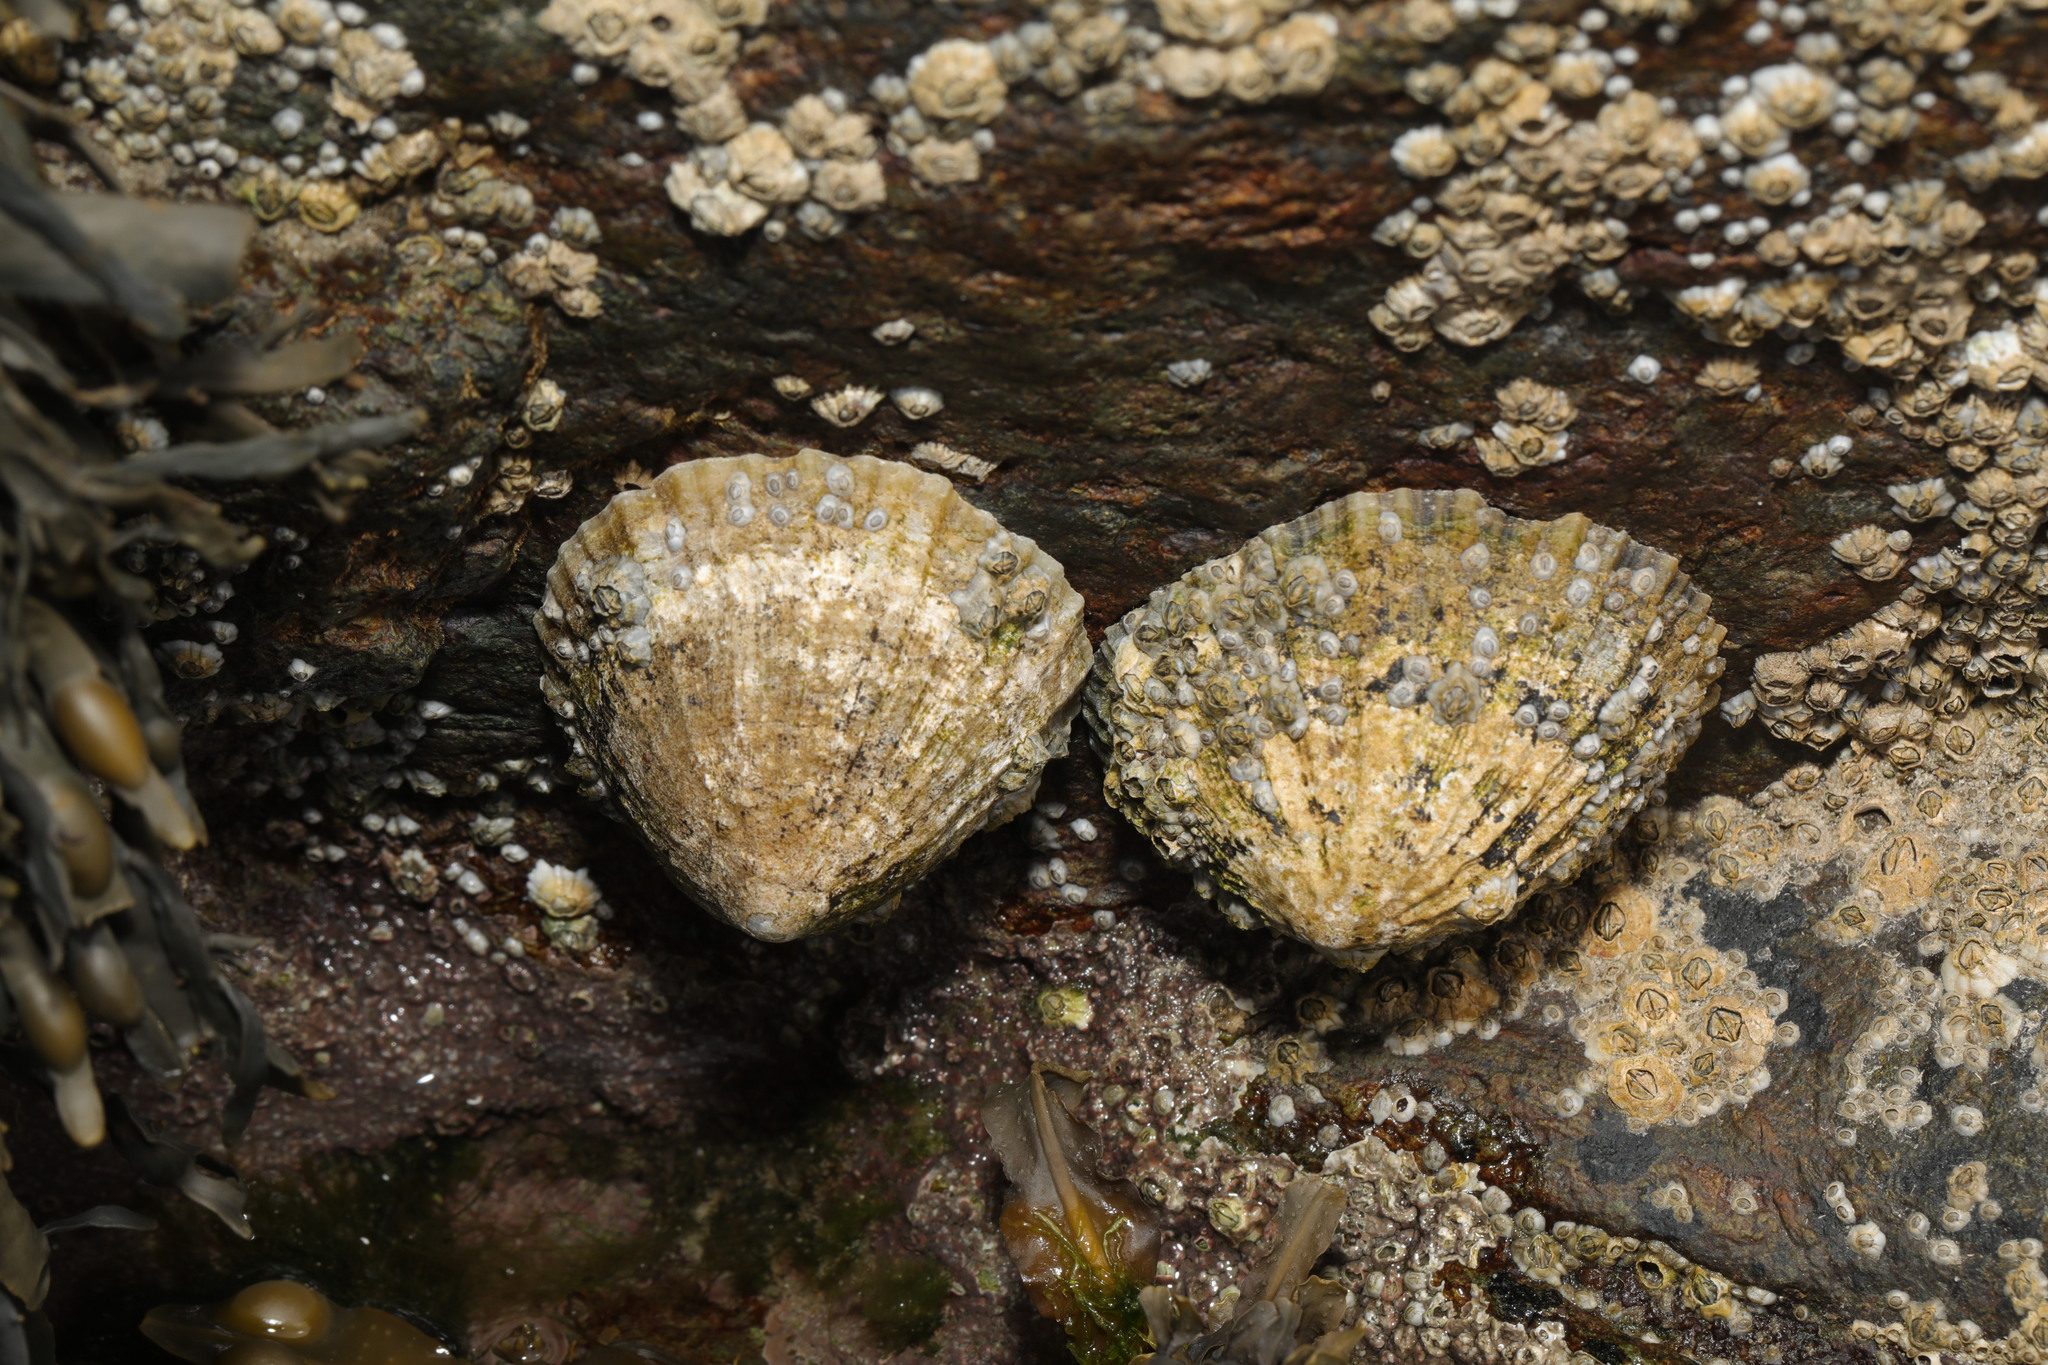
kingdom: Animalia
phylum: Mollusca
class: Gastropoda
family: Patellidae
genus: Patella
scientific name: Patella vulgata
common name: Common limpet
